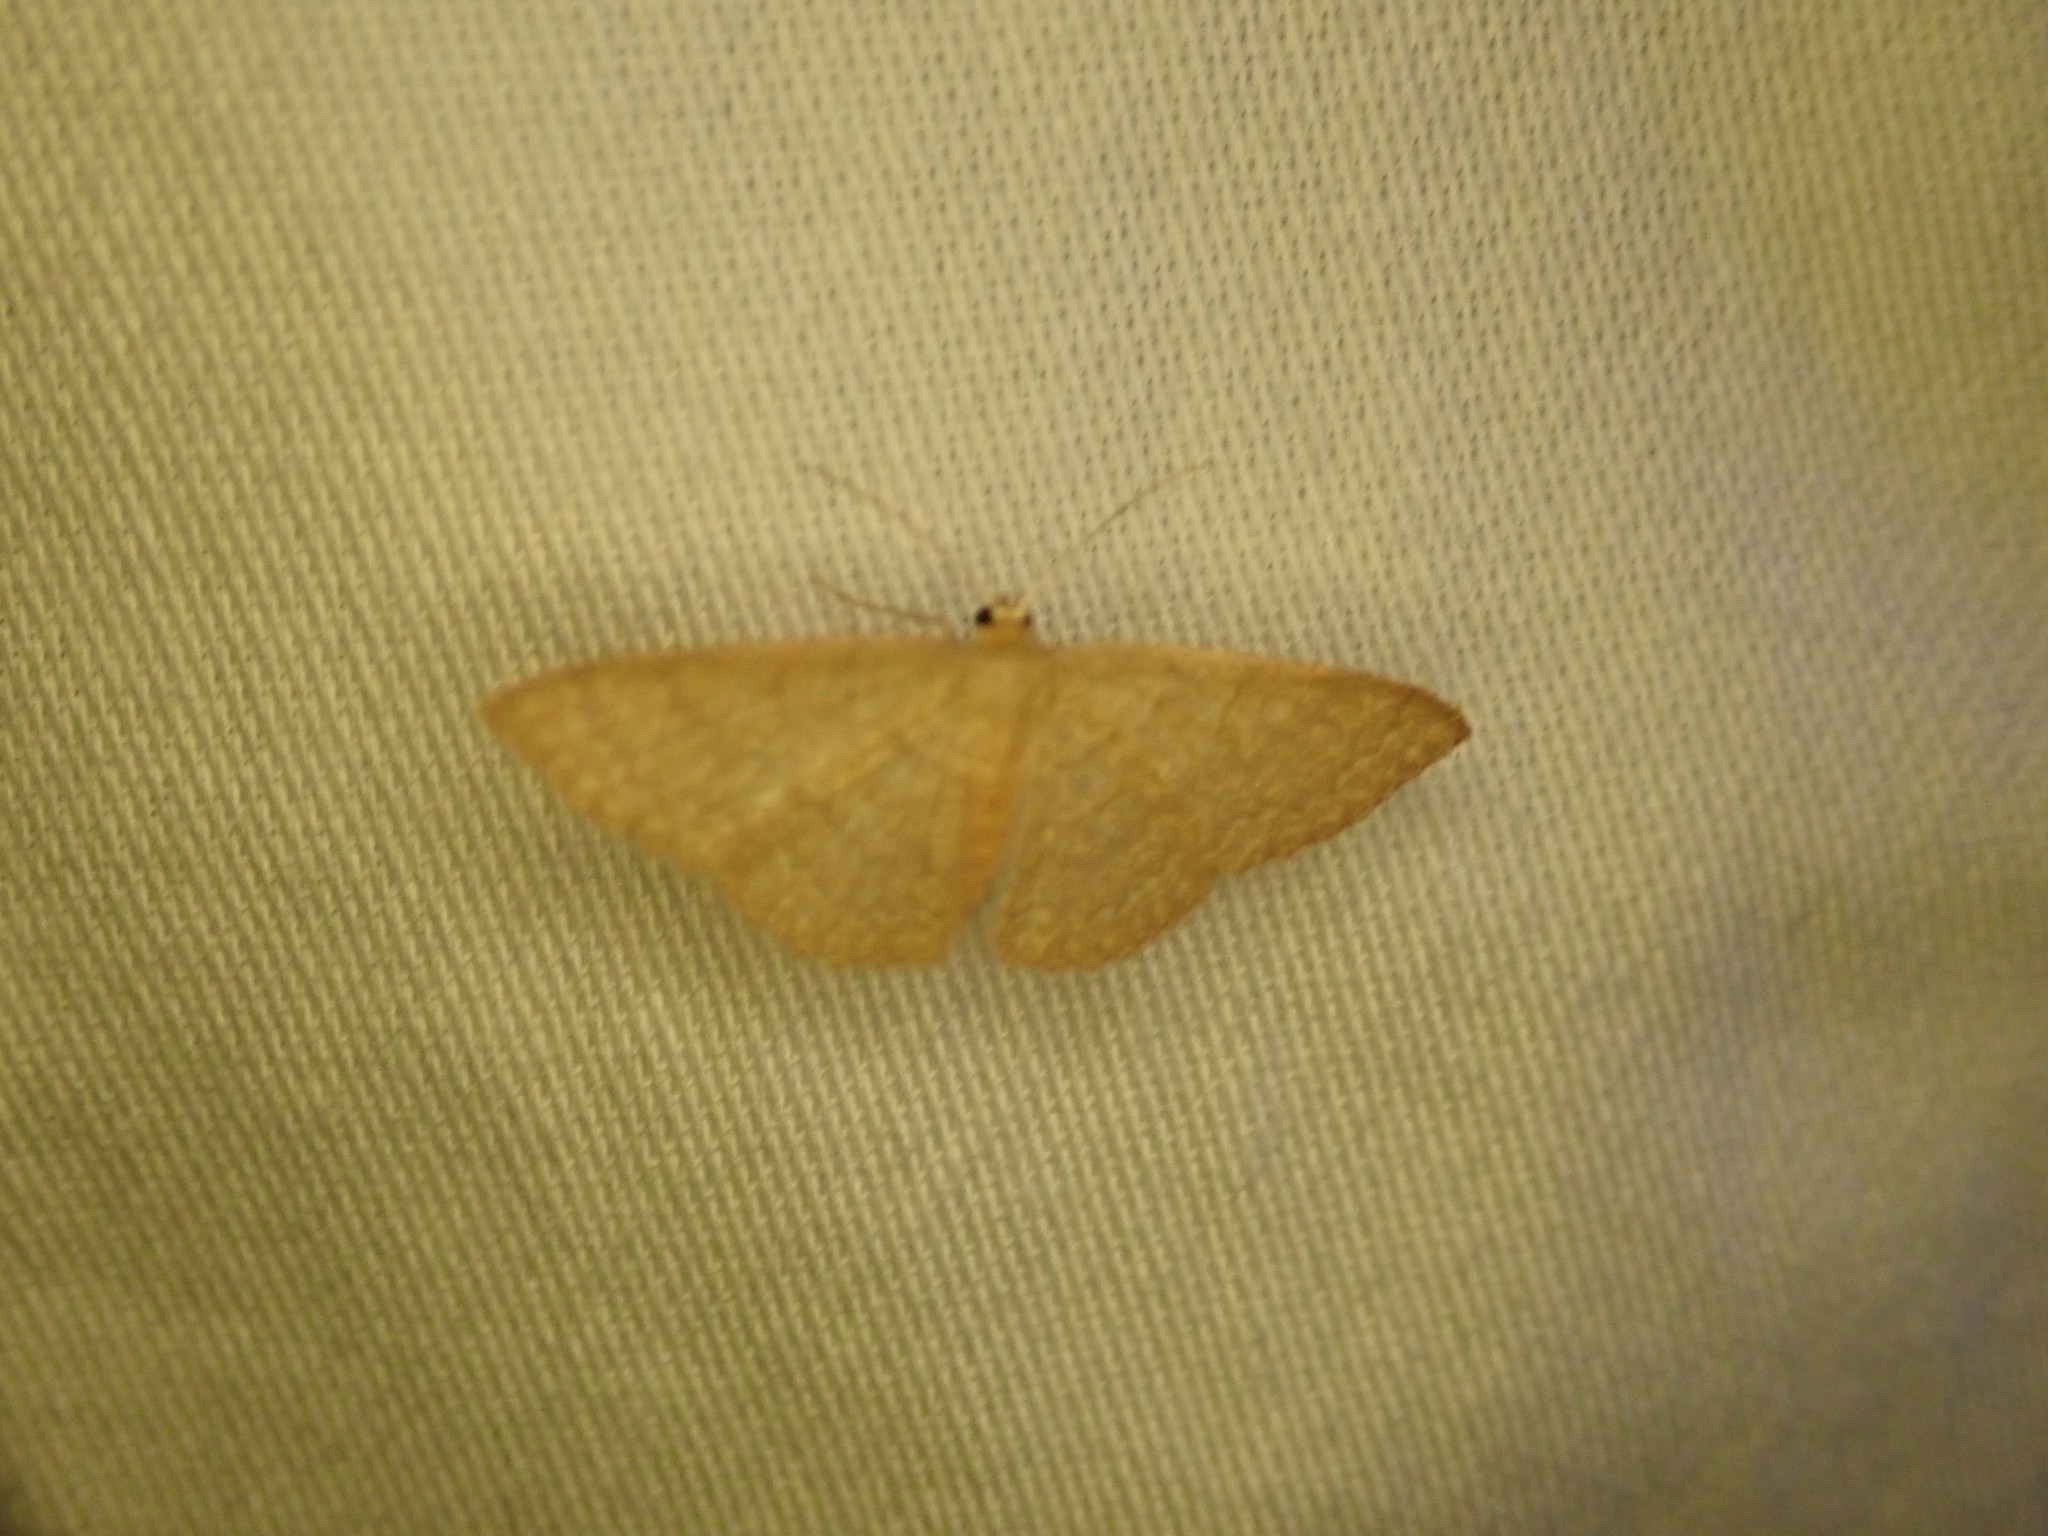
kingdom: Animalia
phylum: Arthropoda
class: Insecta
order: Lepidoptera
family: Geometridae
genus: Pleuroprucha
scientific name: Pleuroprucha insulsaria
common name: Common tan wave
